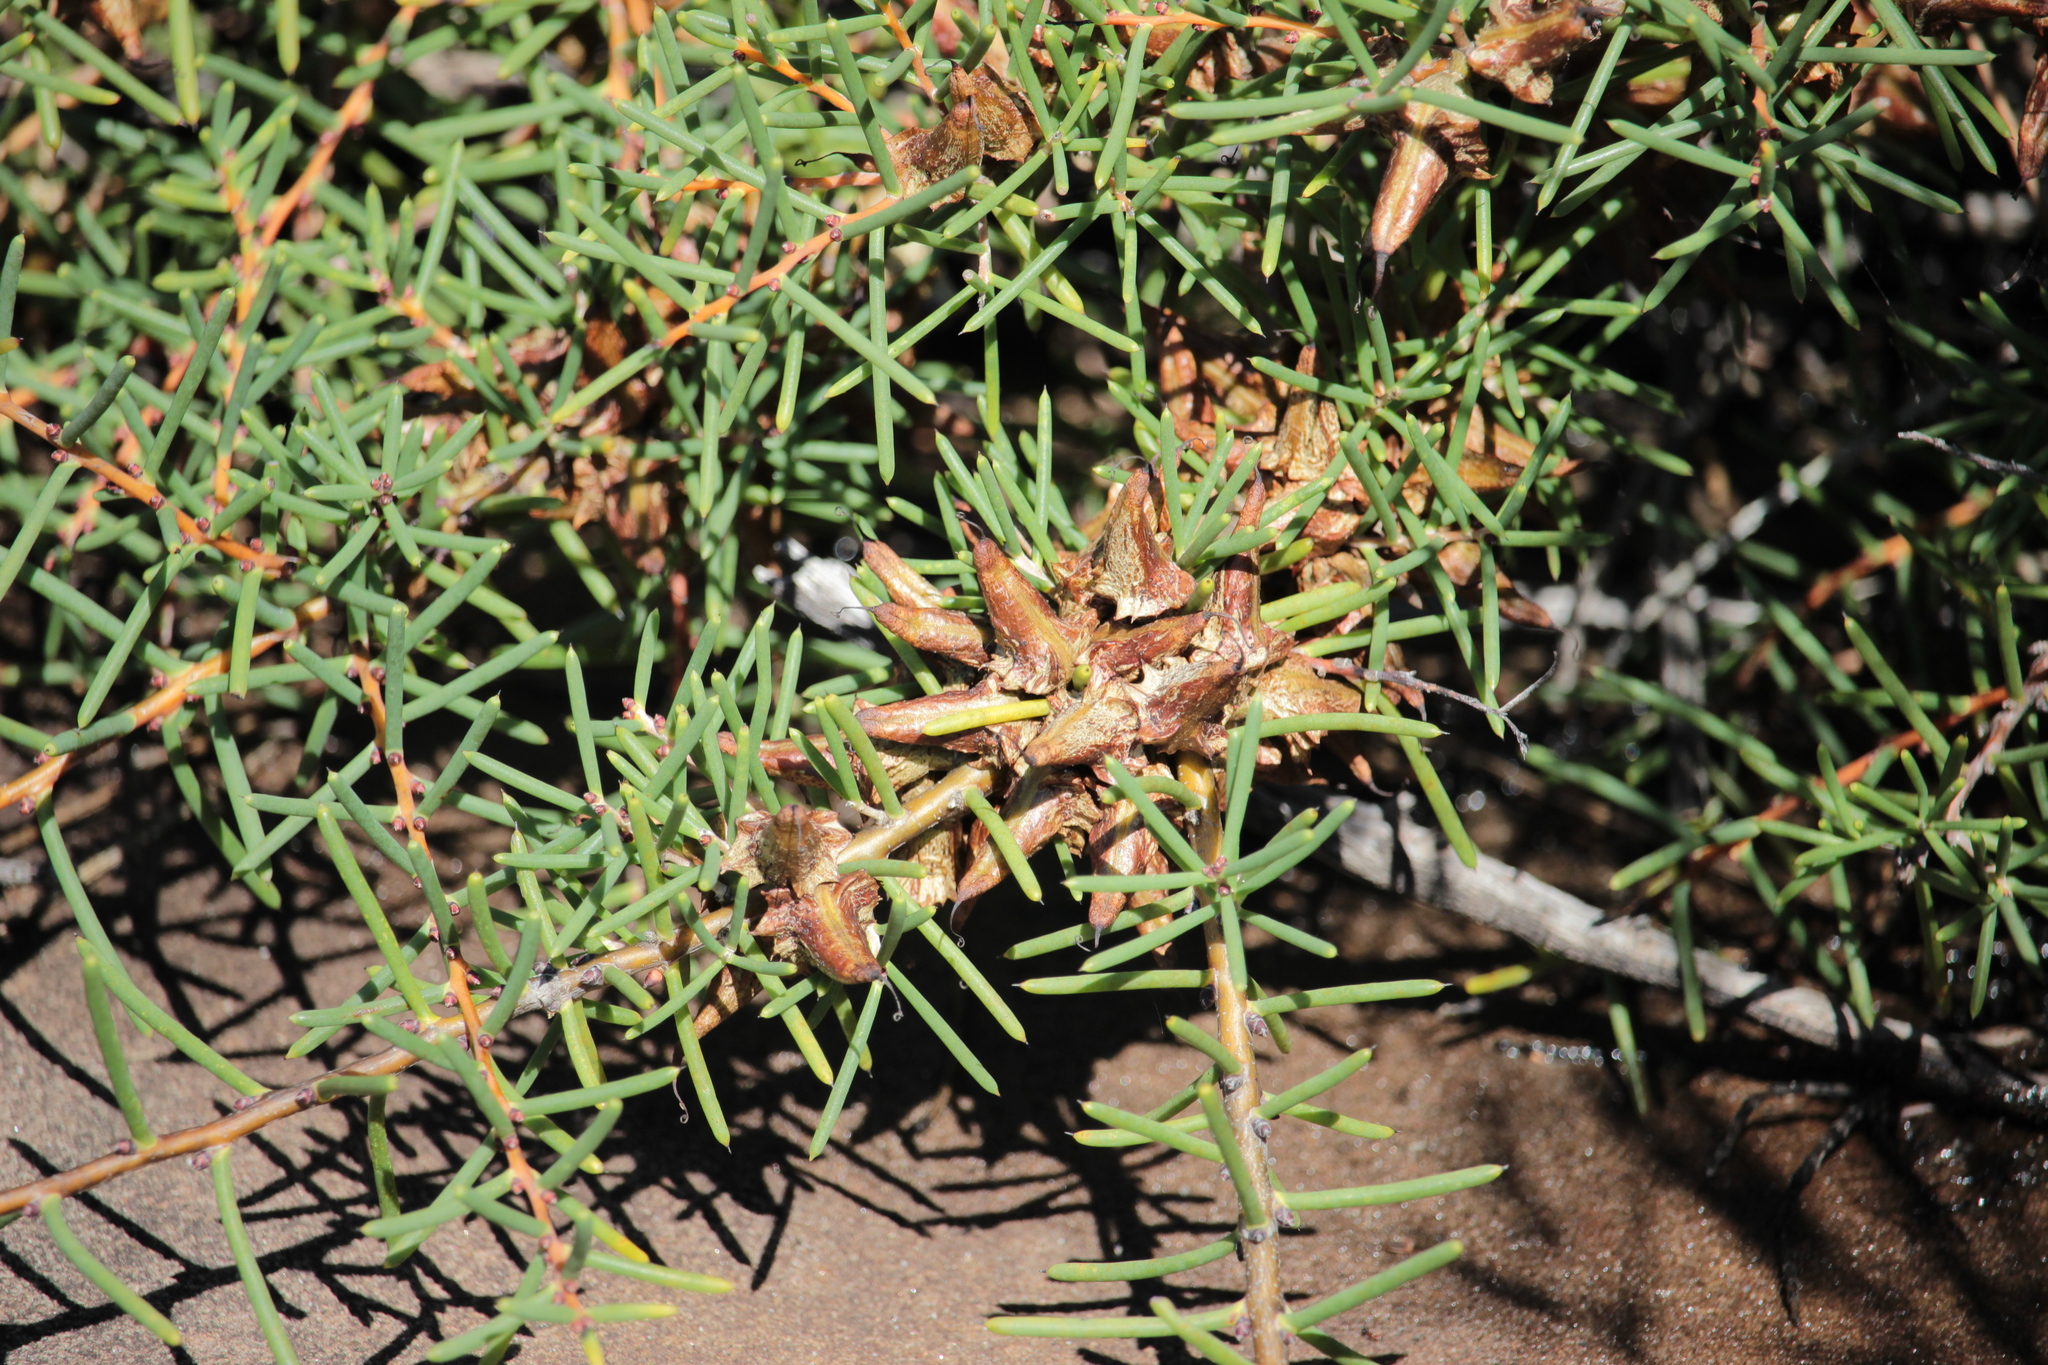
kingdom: Plantae
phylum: Tracheophyta
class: Magnoliopsida
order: Proteales
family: Proteaceae
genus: Hakea
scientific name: Hakea teretifolia
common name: Dagger hakea
